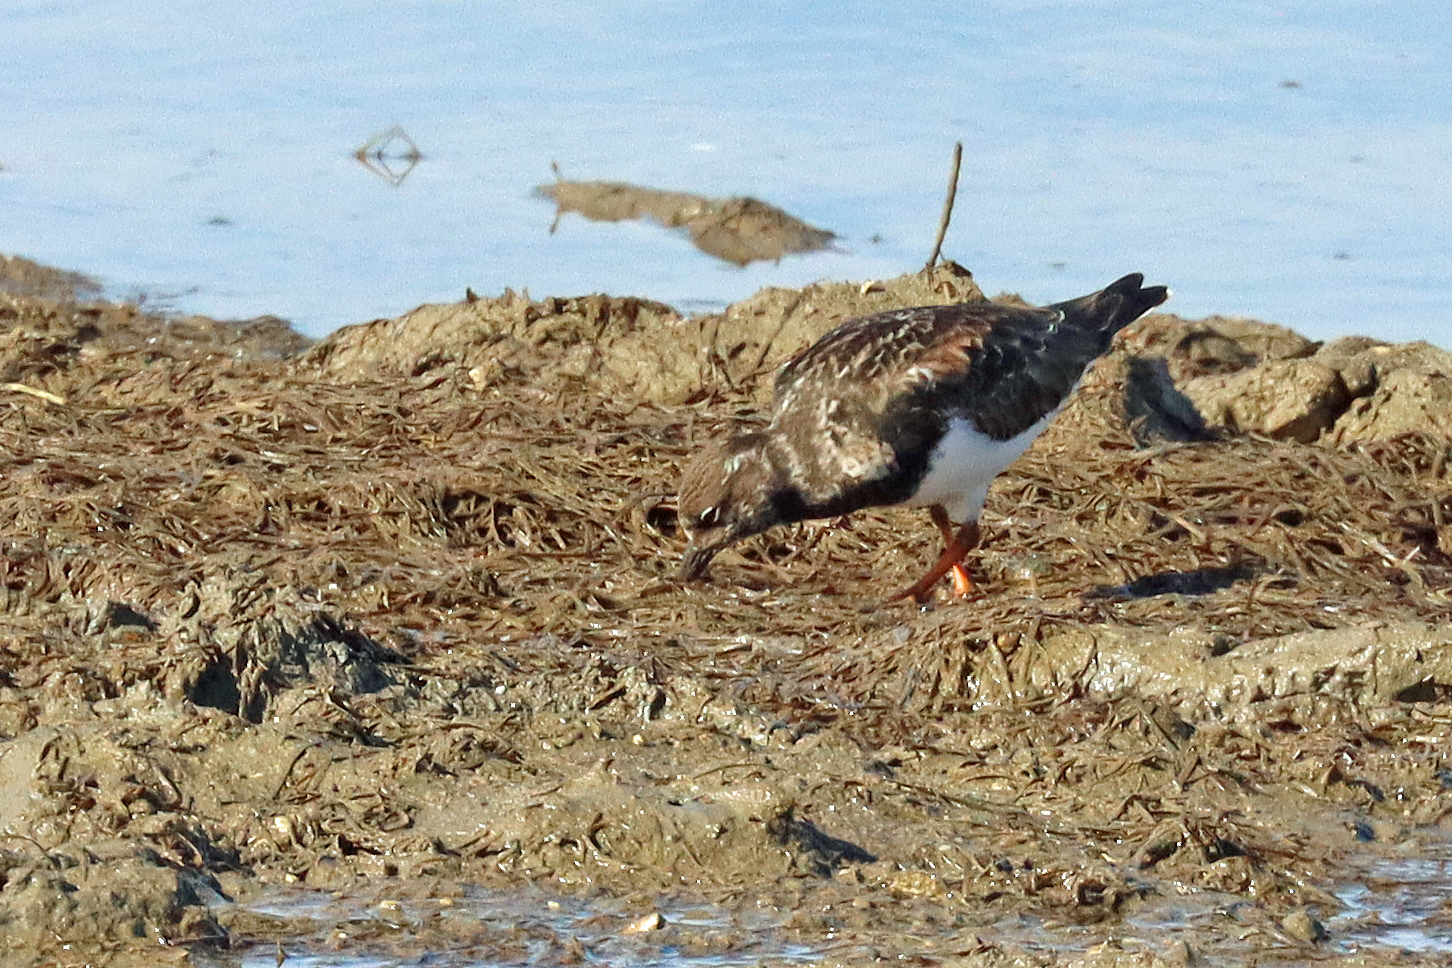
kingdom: Animalia
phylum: Chordata
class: Aves
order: Charadriiformes
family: Scolopacidae
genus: Arenaria
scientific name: Arenaria interpres
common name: Ruddy turnstone
